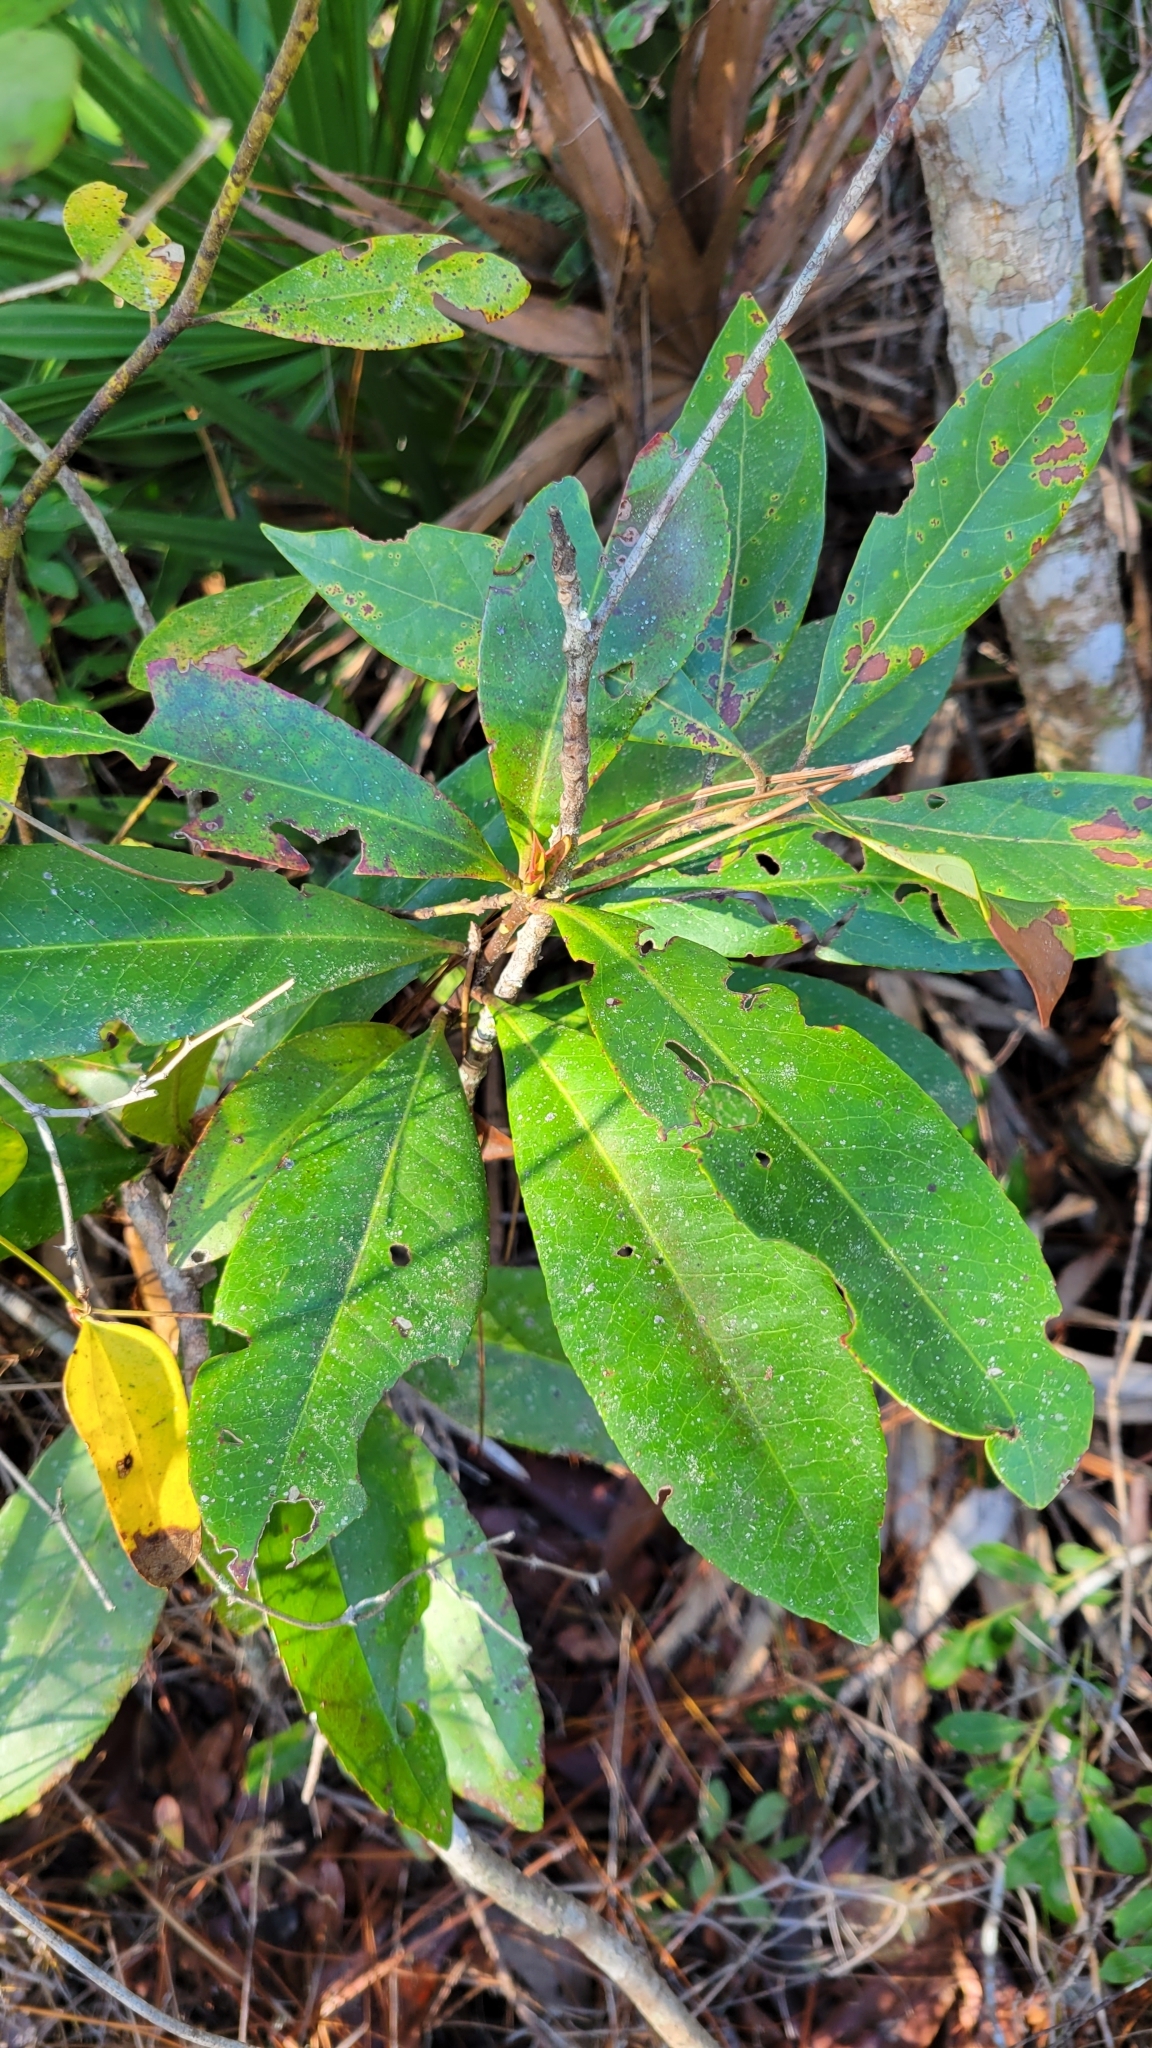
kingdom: Plantae
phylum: Tracheophyta
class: Magnoliopsida
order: Ericales
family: Theaceae
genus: Gordonia
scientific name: Gordonia lasianthus
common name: Loblolly bay
